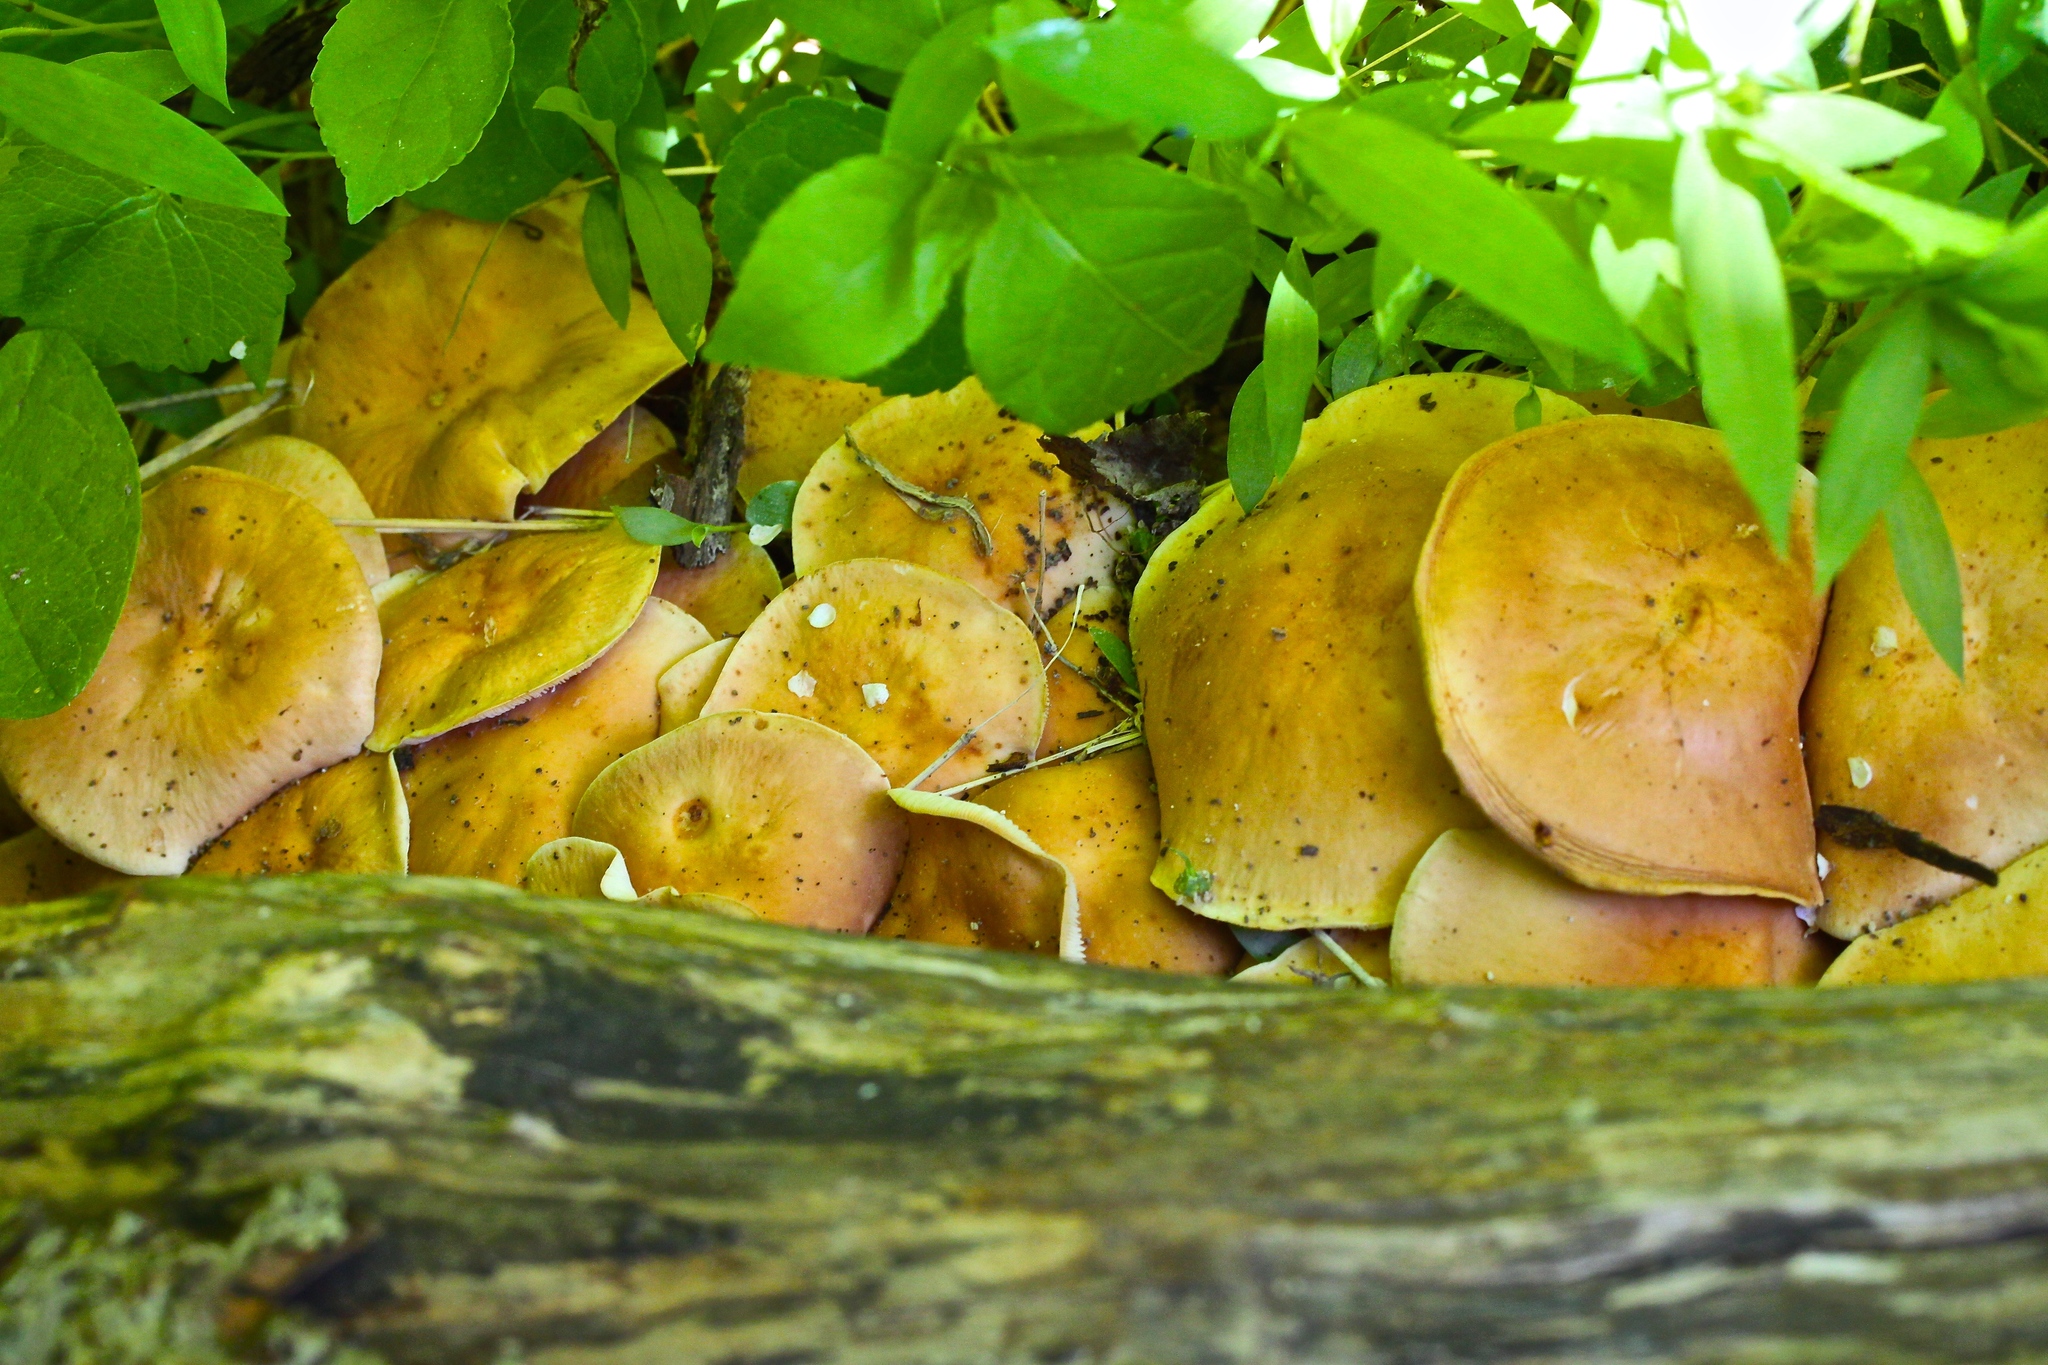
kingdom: Fungi
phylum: Basidiomycota
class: Agaricomycetes
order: Agaricales
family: Omphalotaceae
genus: Gymnopus
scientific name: Gymnopus dryophilus
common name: Penny top
